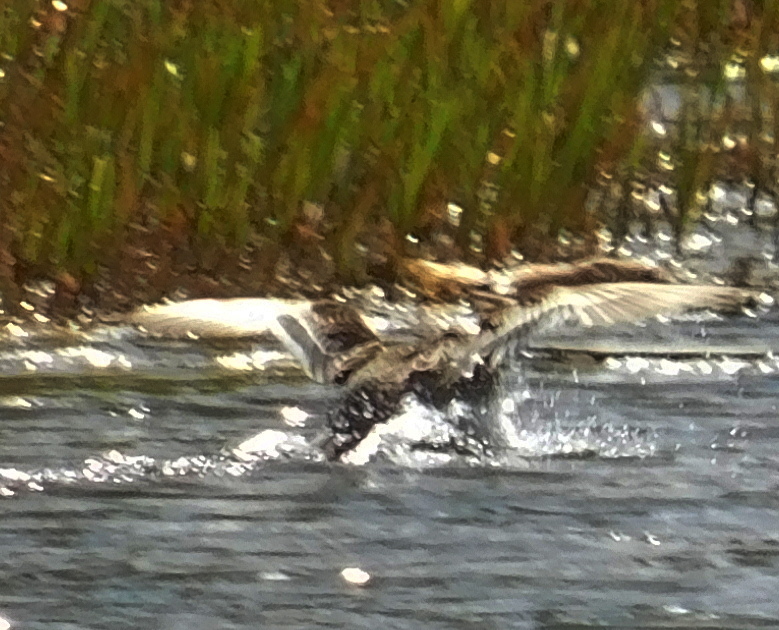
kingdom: Animalia
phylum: Chordata
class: Aves
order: Anseriformes
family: Anatidae
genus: Spatula
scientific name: Spatula querquedula
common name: Garganey
